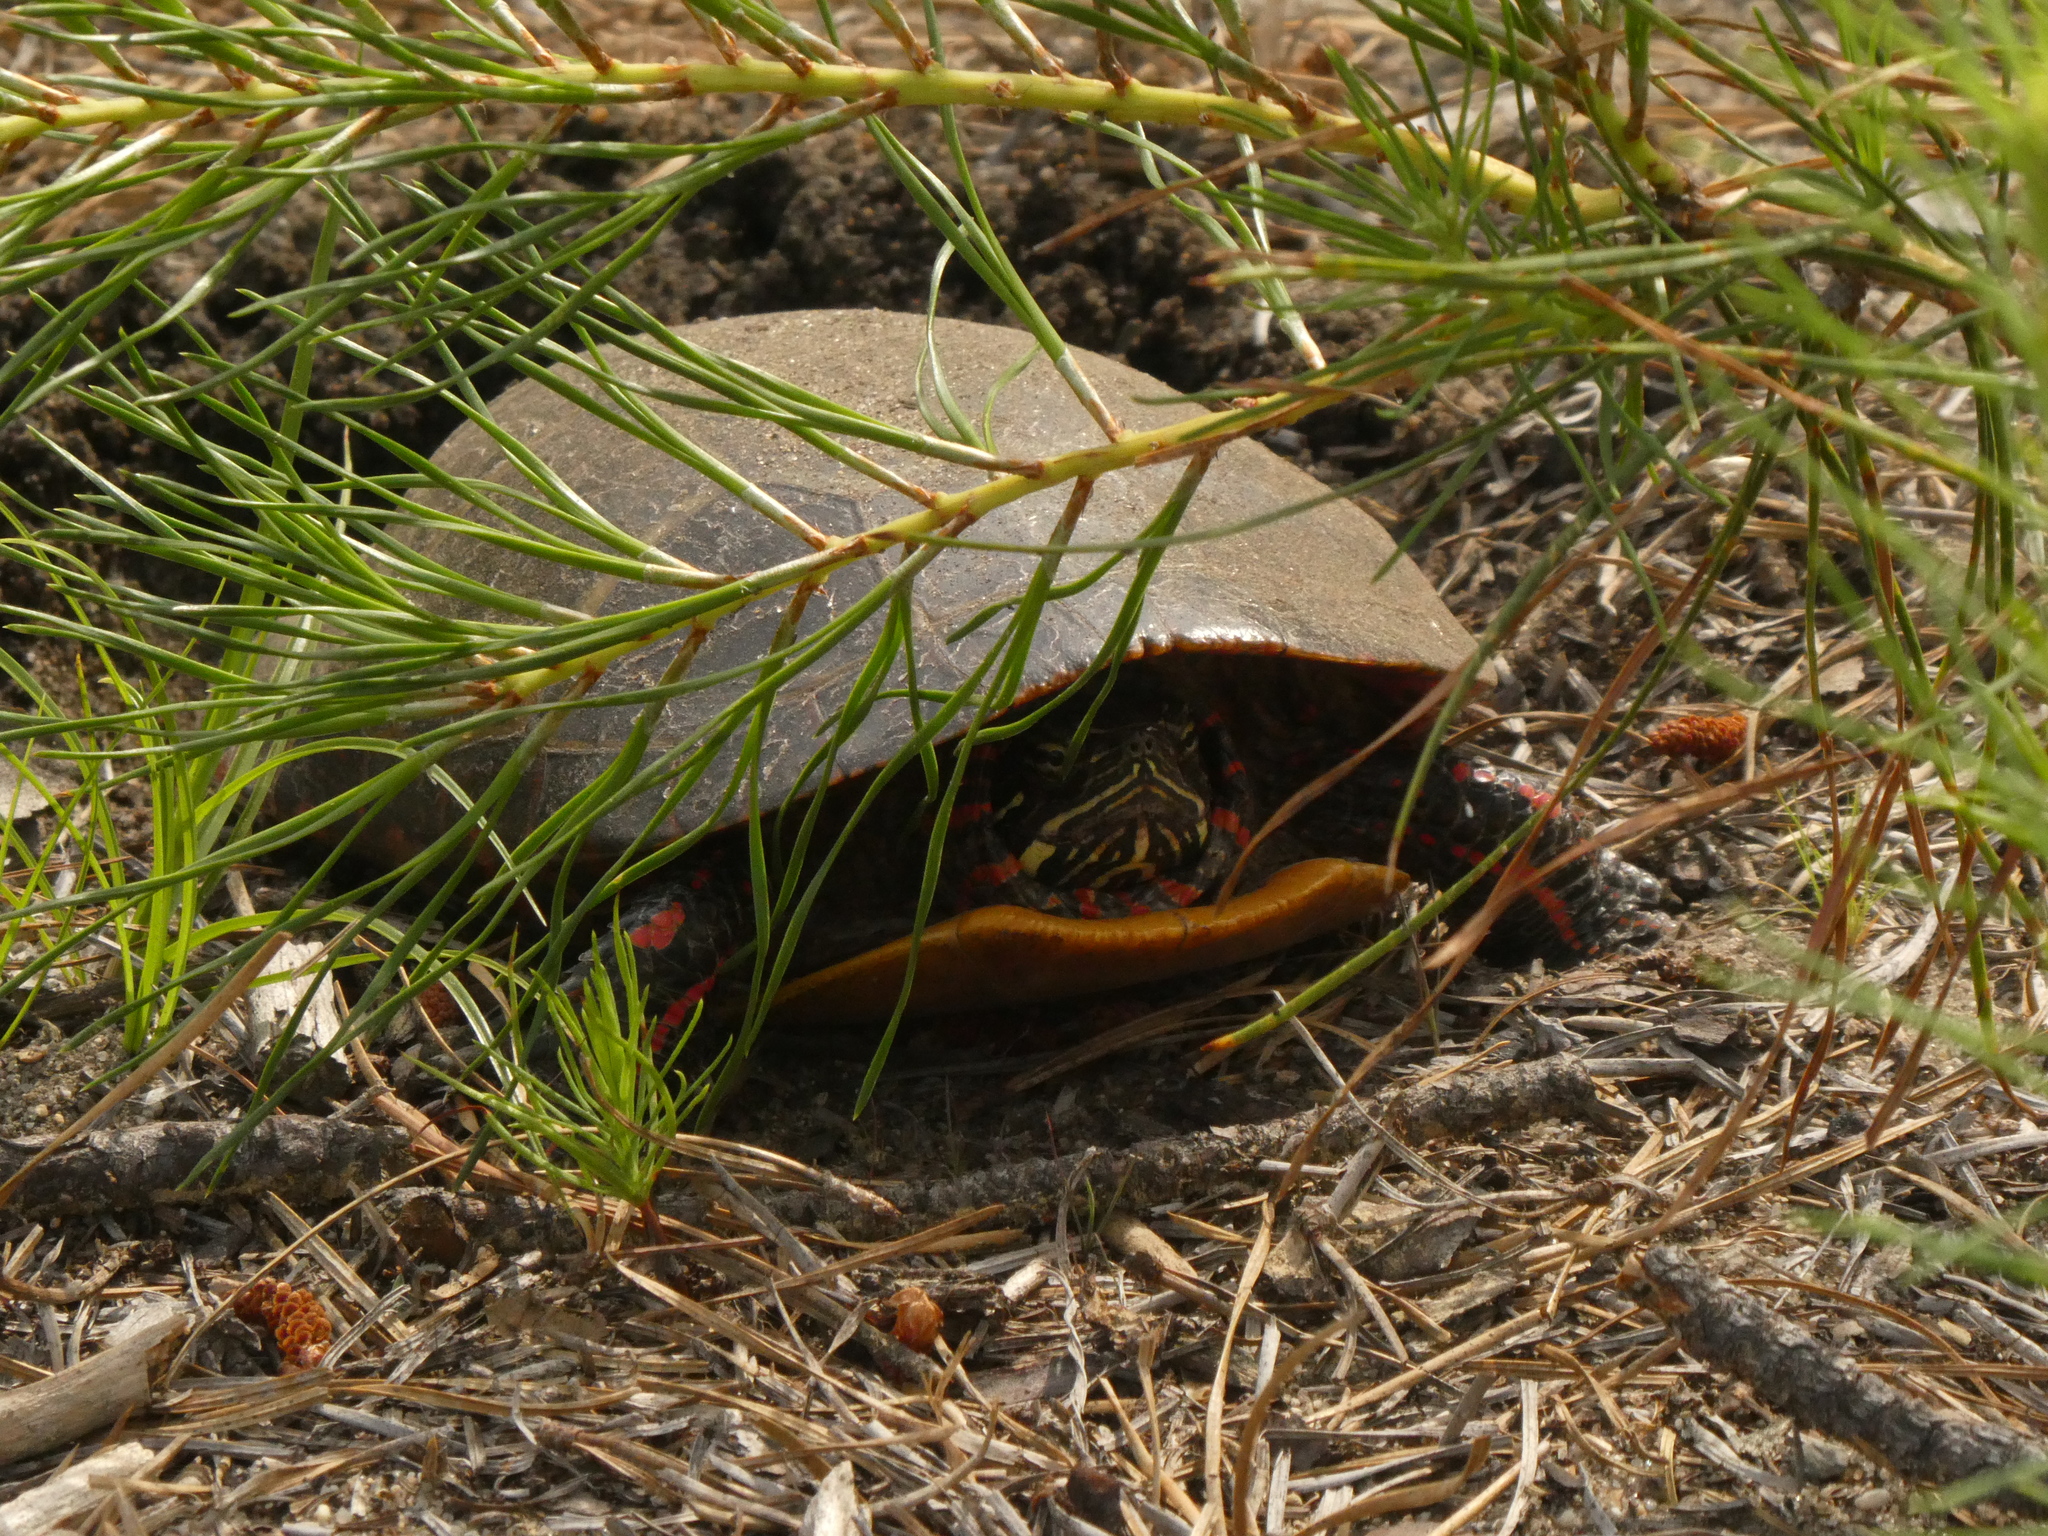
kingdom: Animalia
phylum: Chordata
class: Testudines
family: Emydidae
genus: Chrysemys
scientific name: Chrysemys picta
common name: Painted turtle
